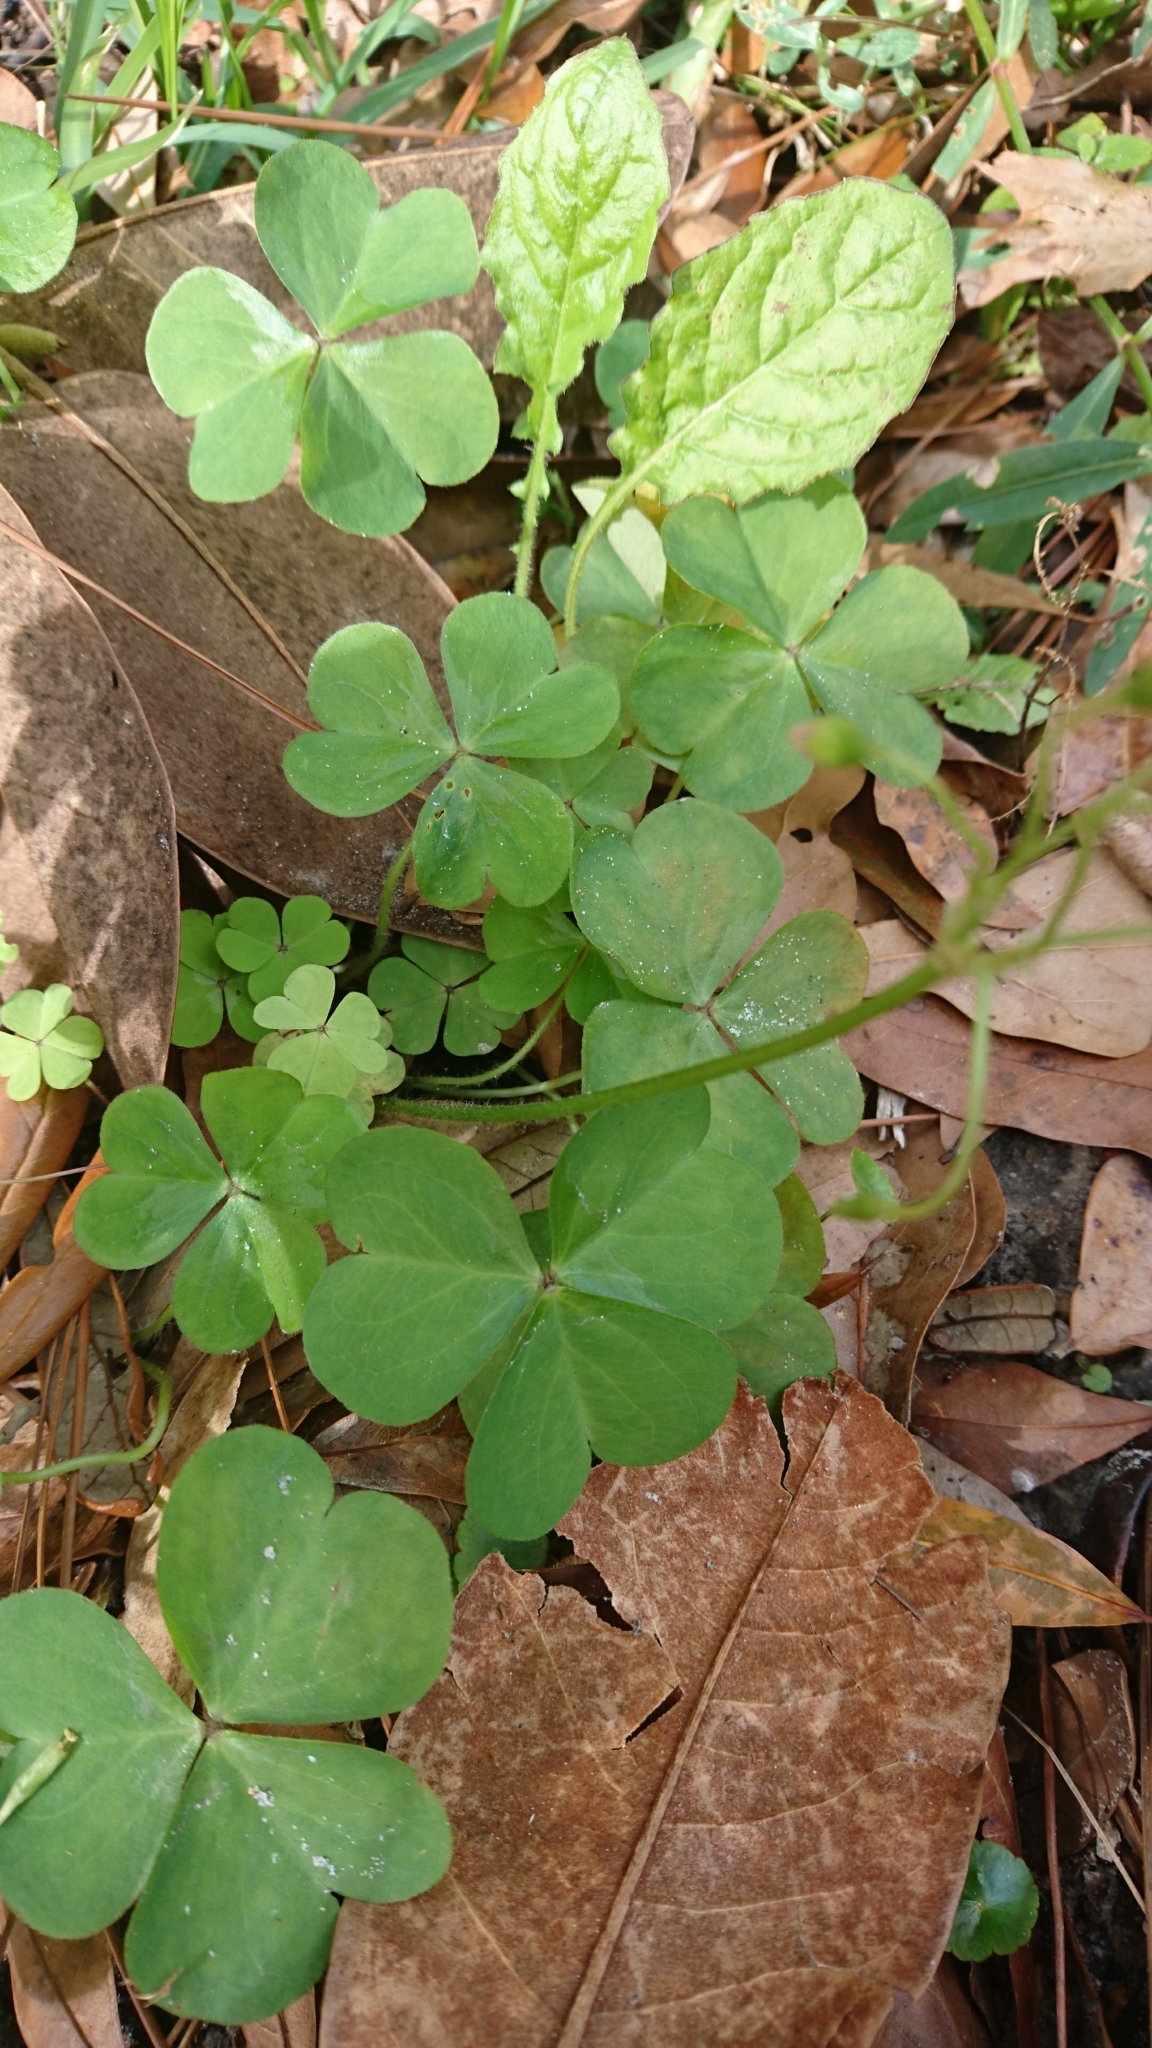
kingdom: Plantae
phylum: Tracheophyta
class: Magnoliopsida
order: Oxalidales
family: Oxalidaceae
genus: Oxalis
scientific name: Oxalis debilis
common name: Large-flowered pink-sorrel
